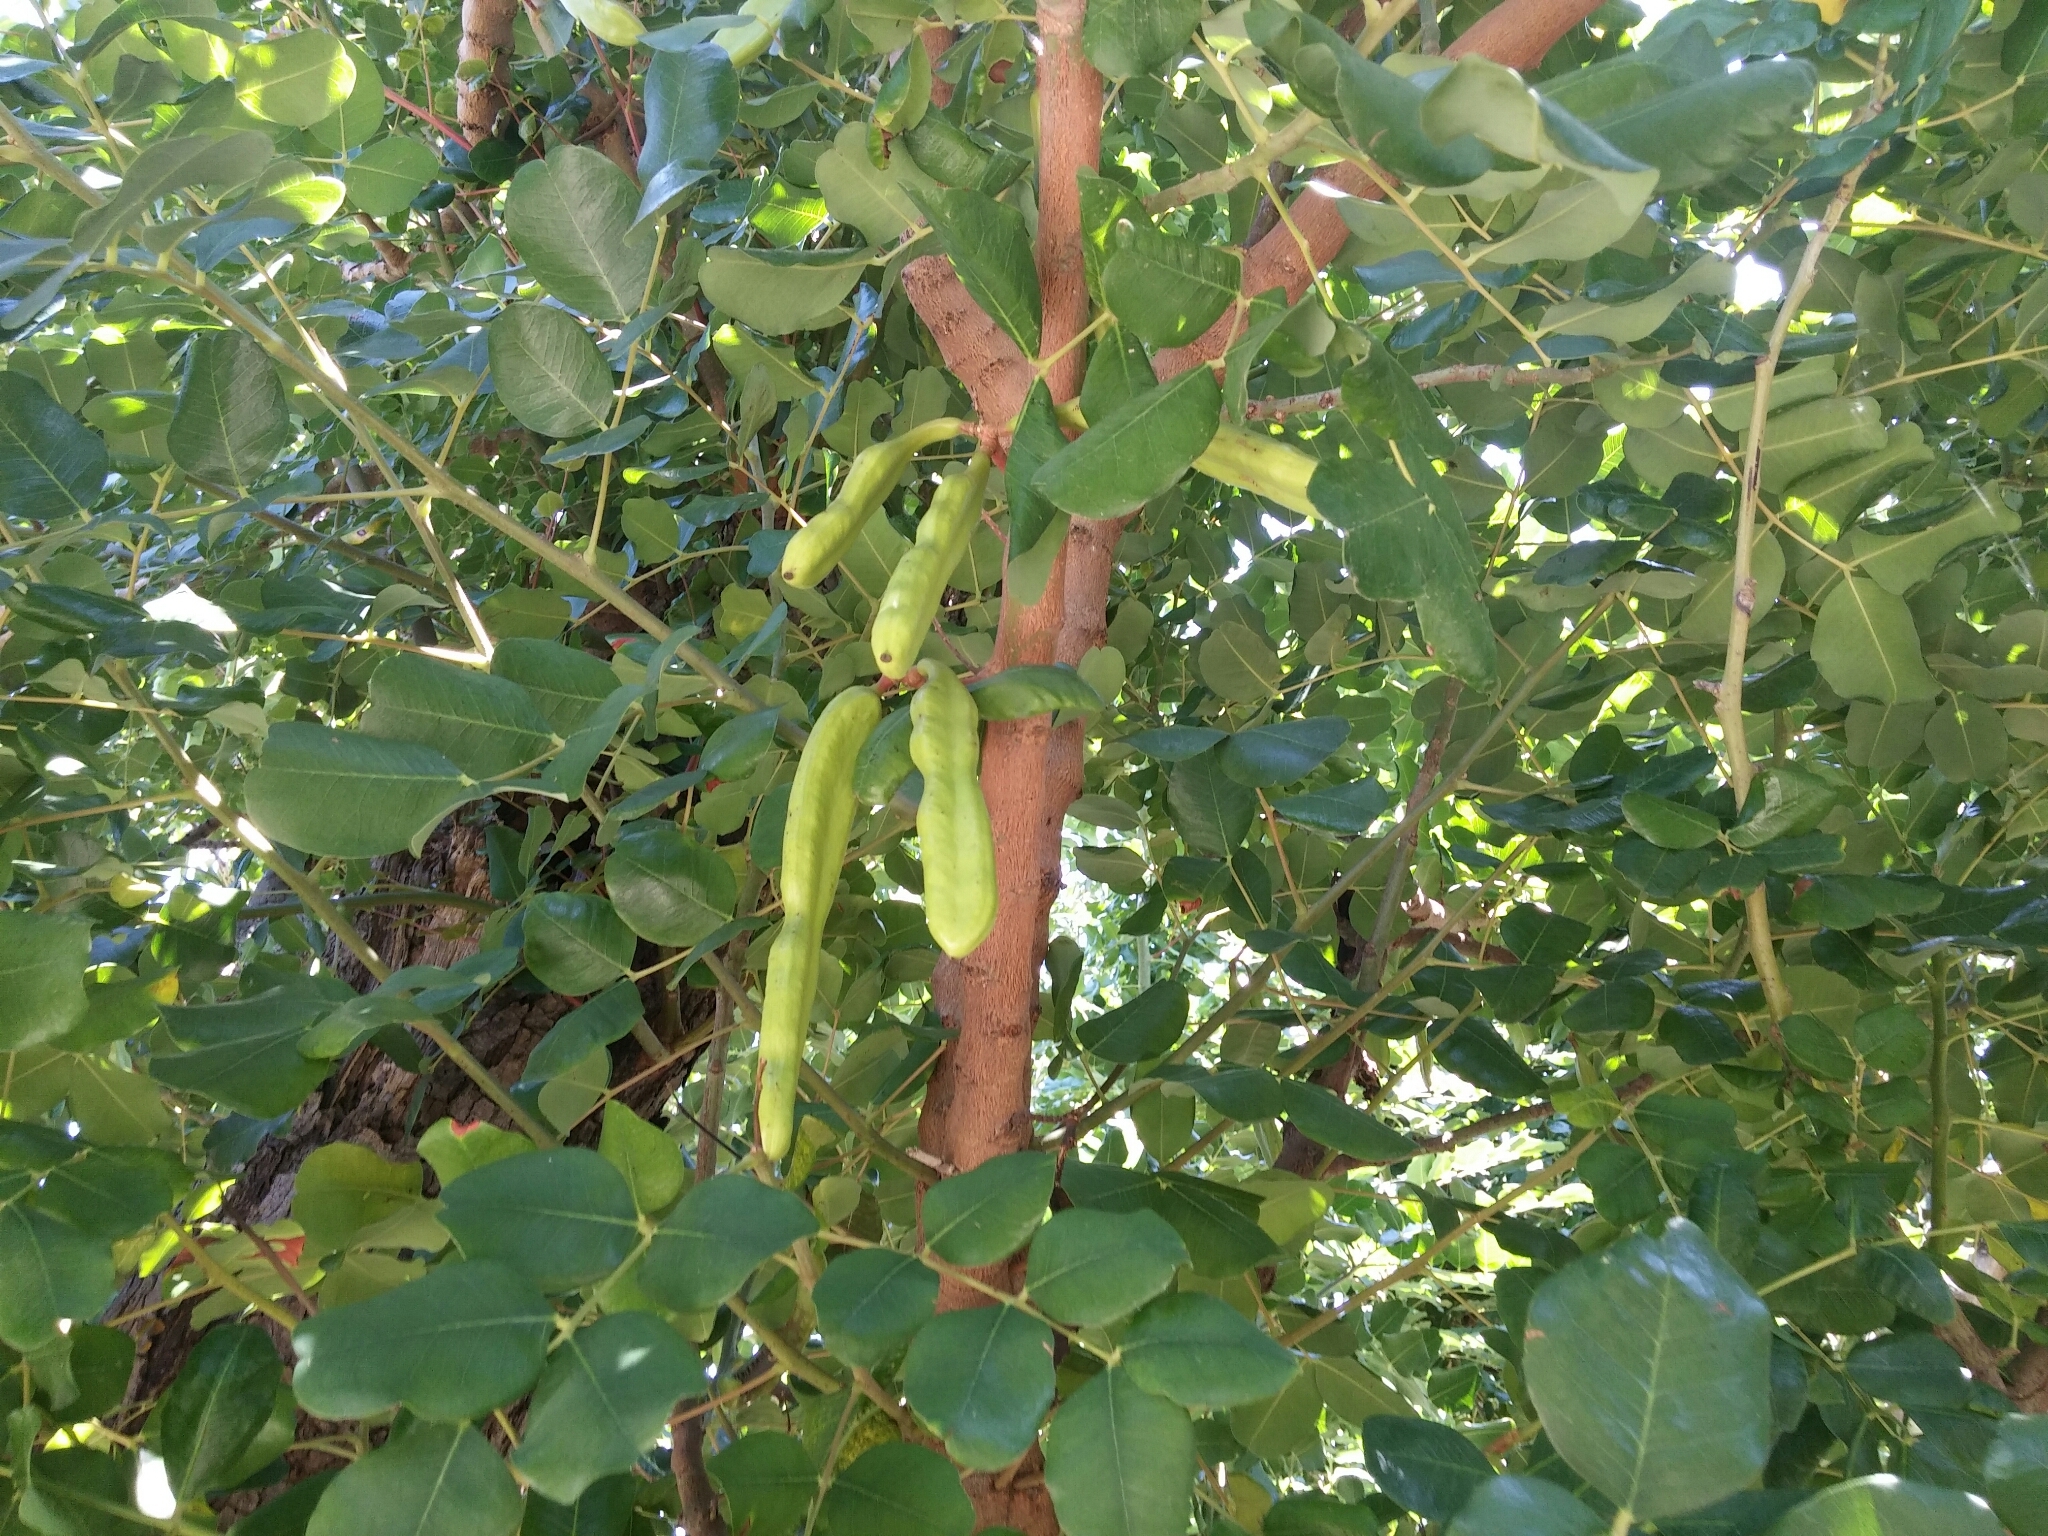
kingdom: Plantae
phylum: Tracheophyta
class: Magnoliopsida
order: Fabales
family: Fabaceae
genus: Ceratonia
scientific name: Ceratonia siliqua
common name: Carob
